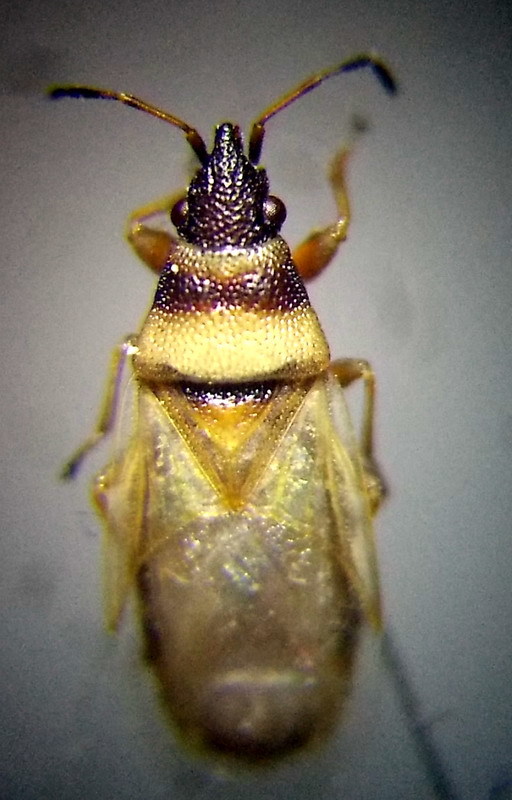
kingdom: Animalia
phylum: Arthropoda
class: Insecta
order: Hemiptera
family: Oxycarenidae
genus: Oxycarenus
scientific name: Oxycarenus pallens
